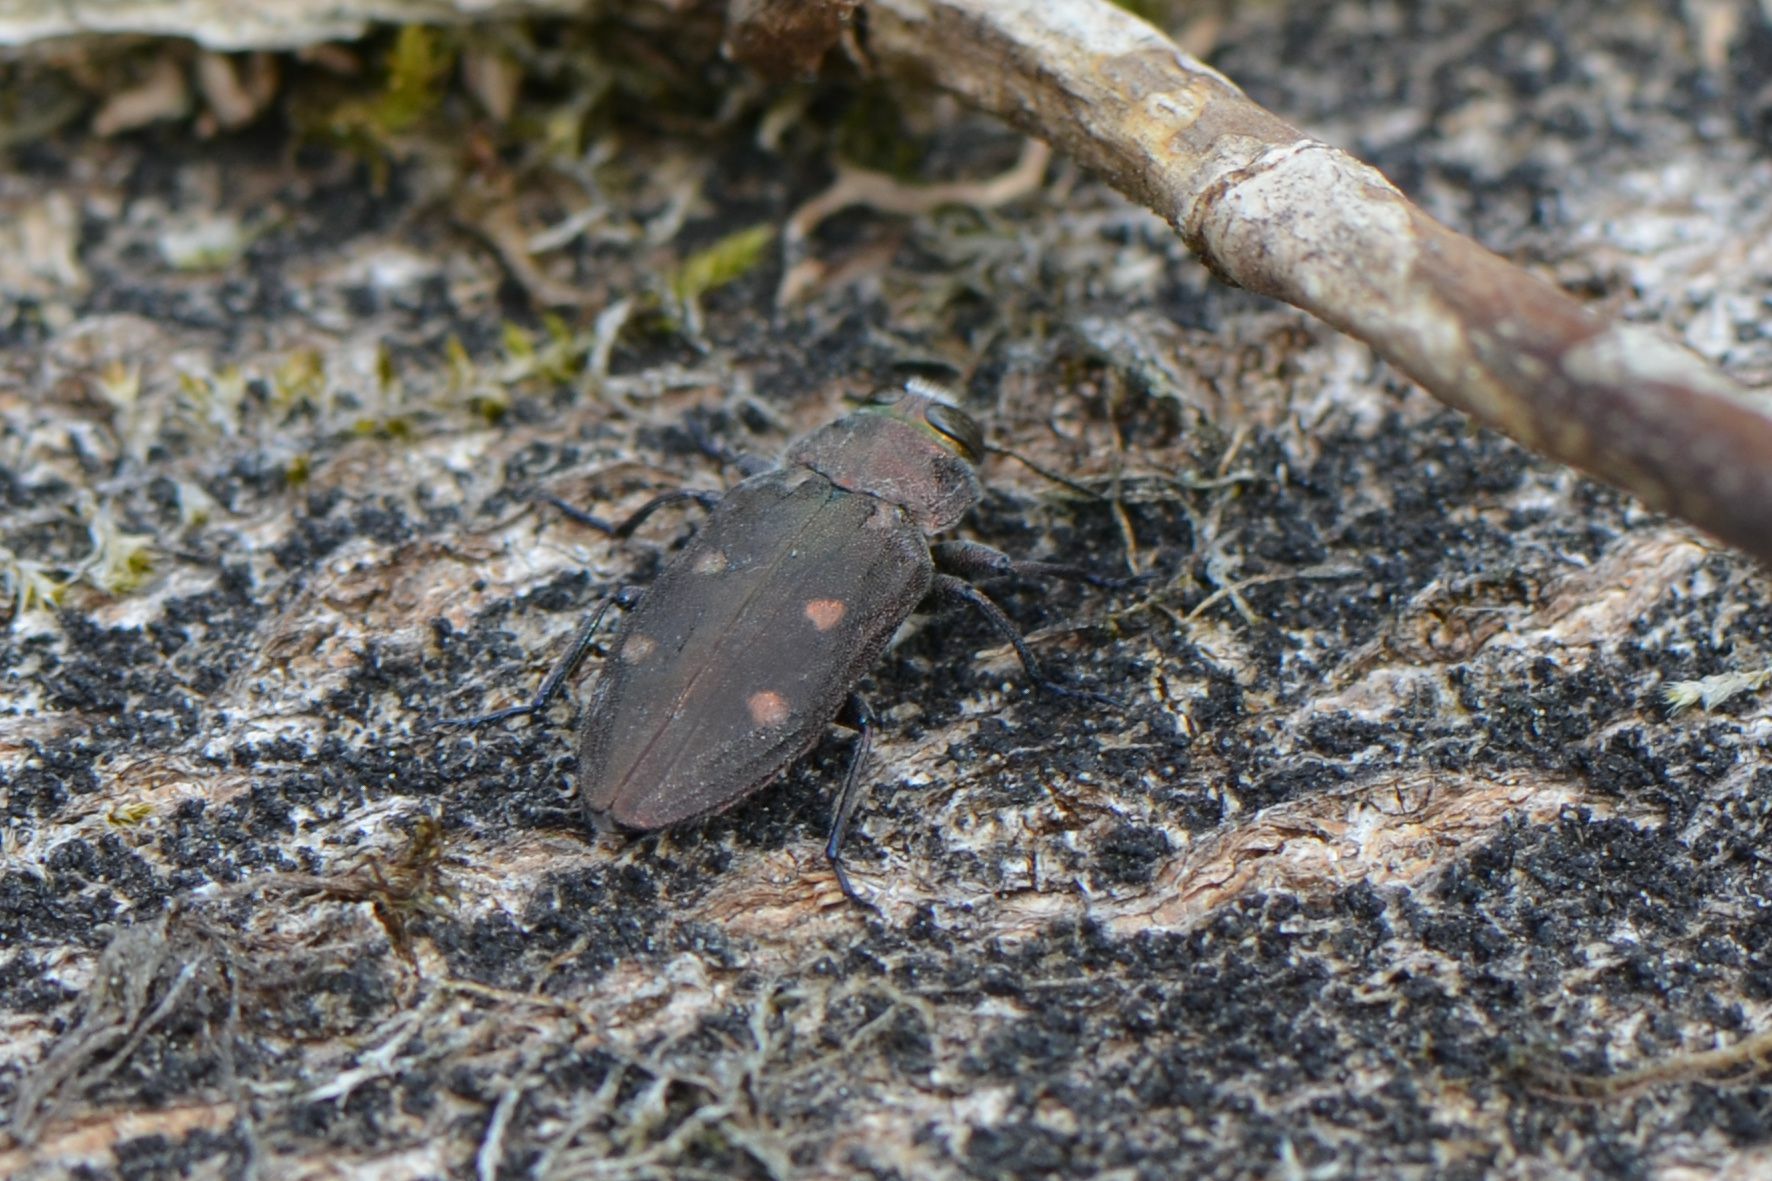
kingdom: Animalia
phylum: Arthropoda
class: Insecta
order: Coleoptera
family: Buprestidae
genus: Chrysobothris
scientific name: Chrysobothris affinis
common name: Beetle
